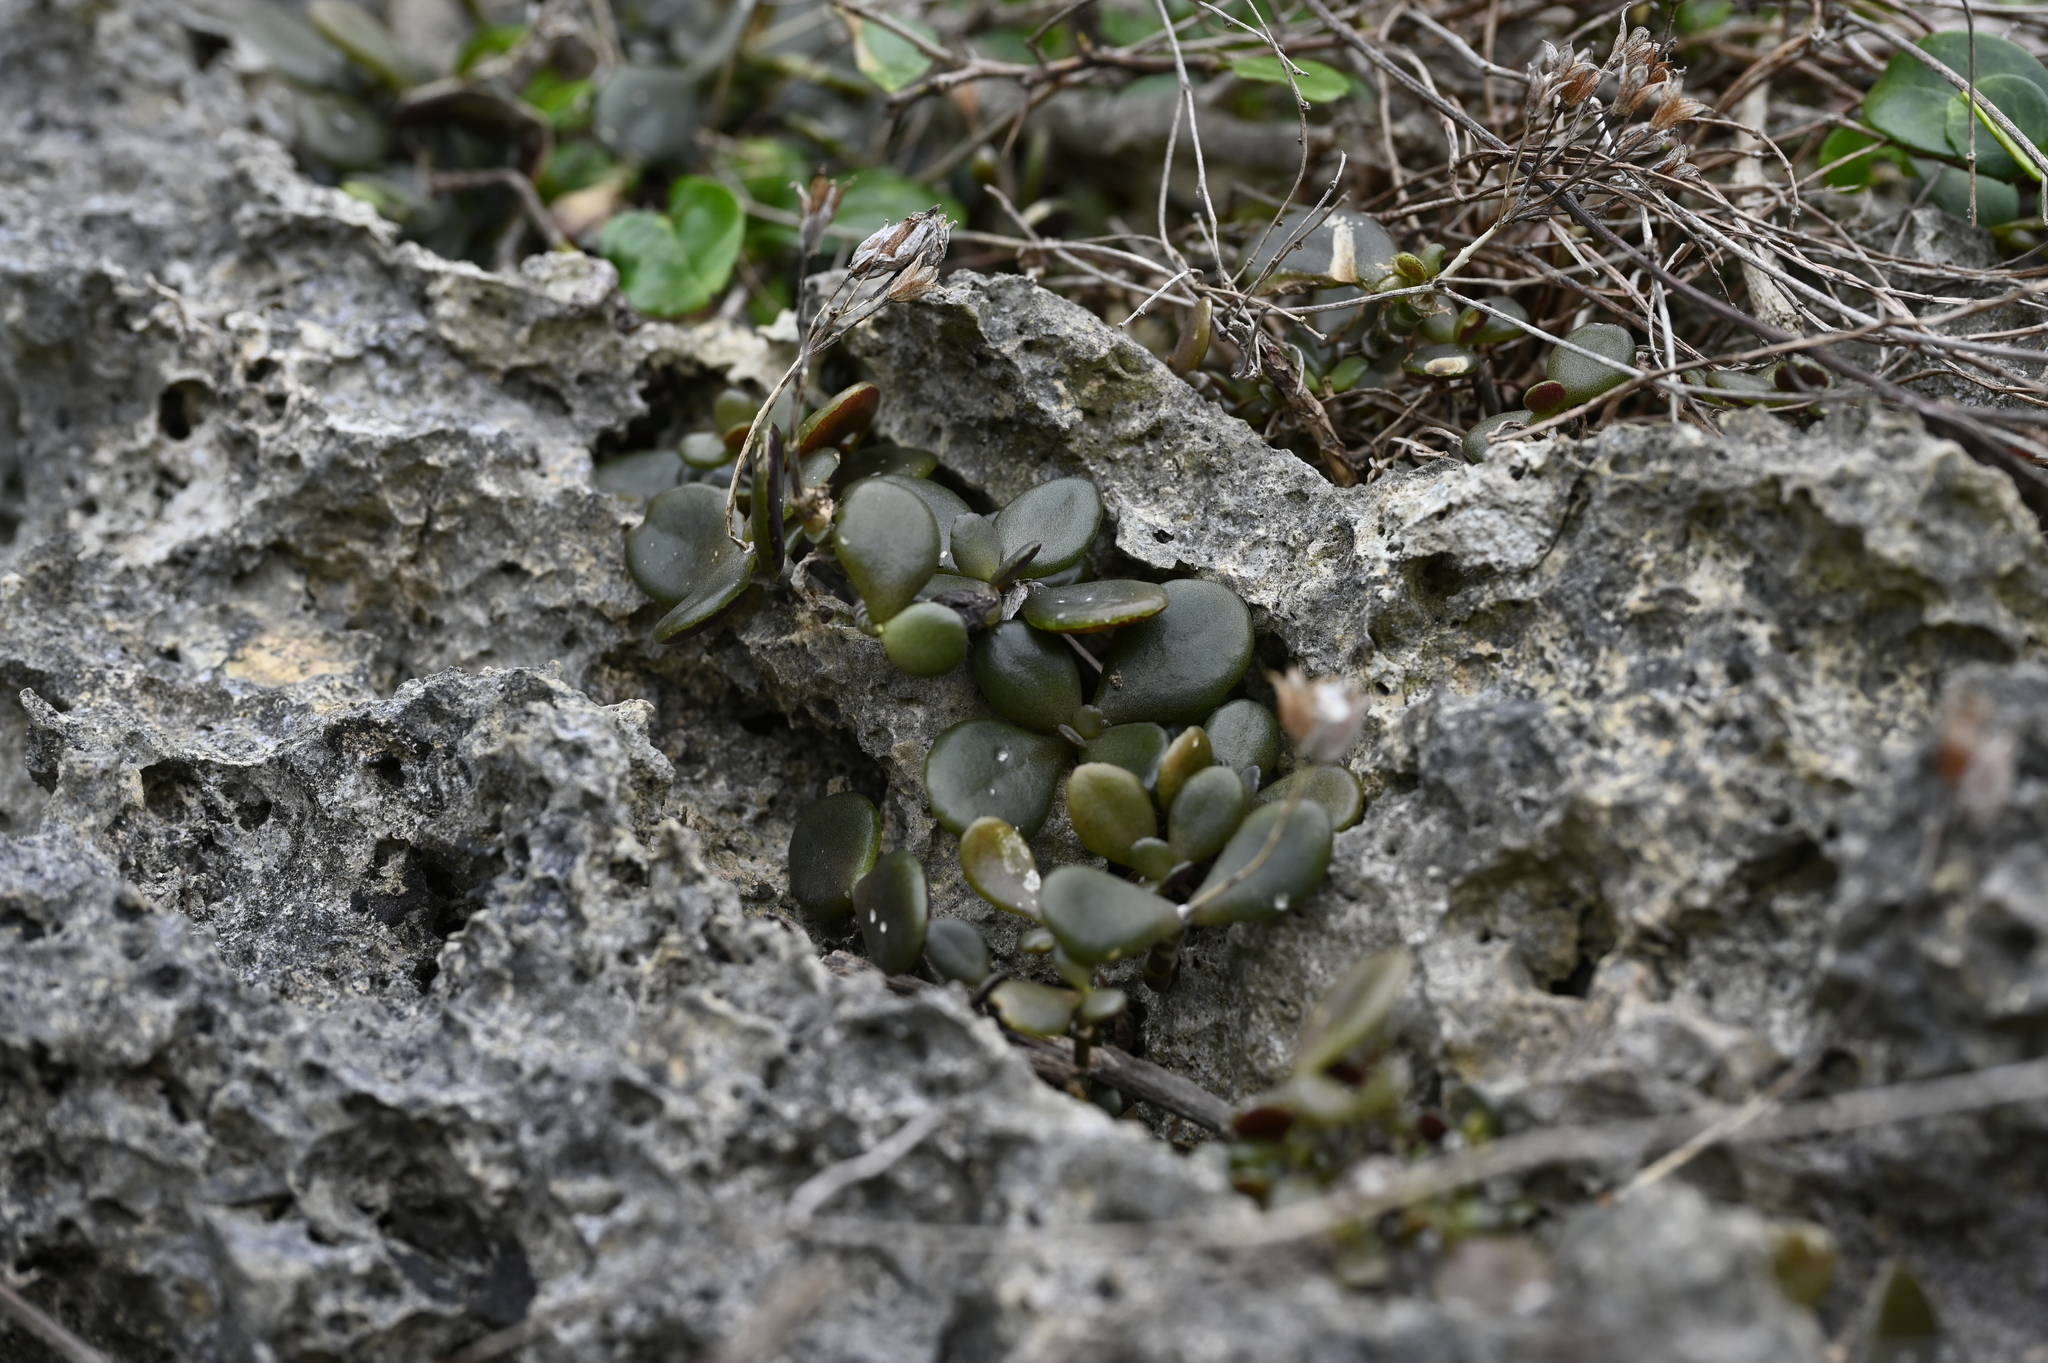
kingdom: Plantae
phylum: Tracheophyta
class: Magnoliopsida
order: Saxifragales
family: Crassulaceae
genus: Kalanchoe
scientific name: Kalanchoe integra
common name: Neverdie
